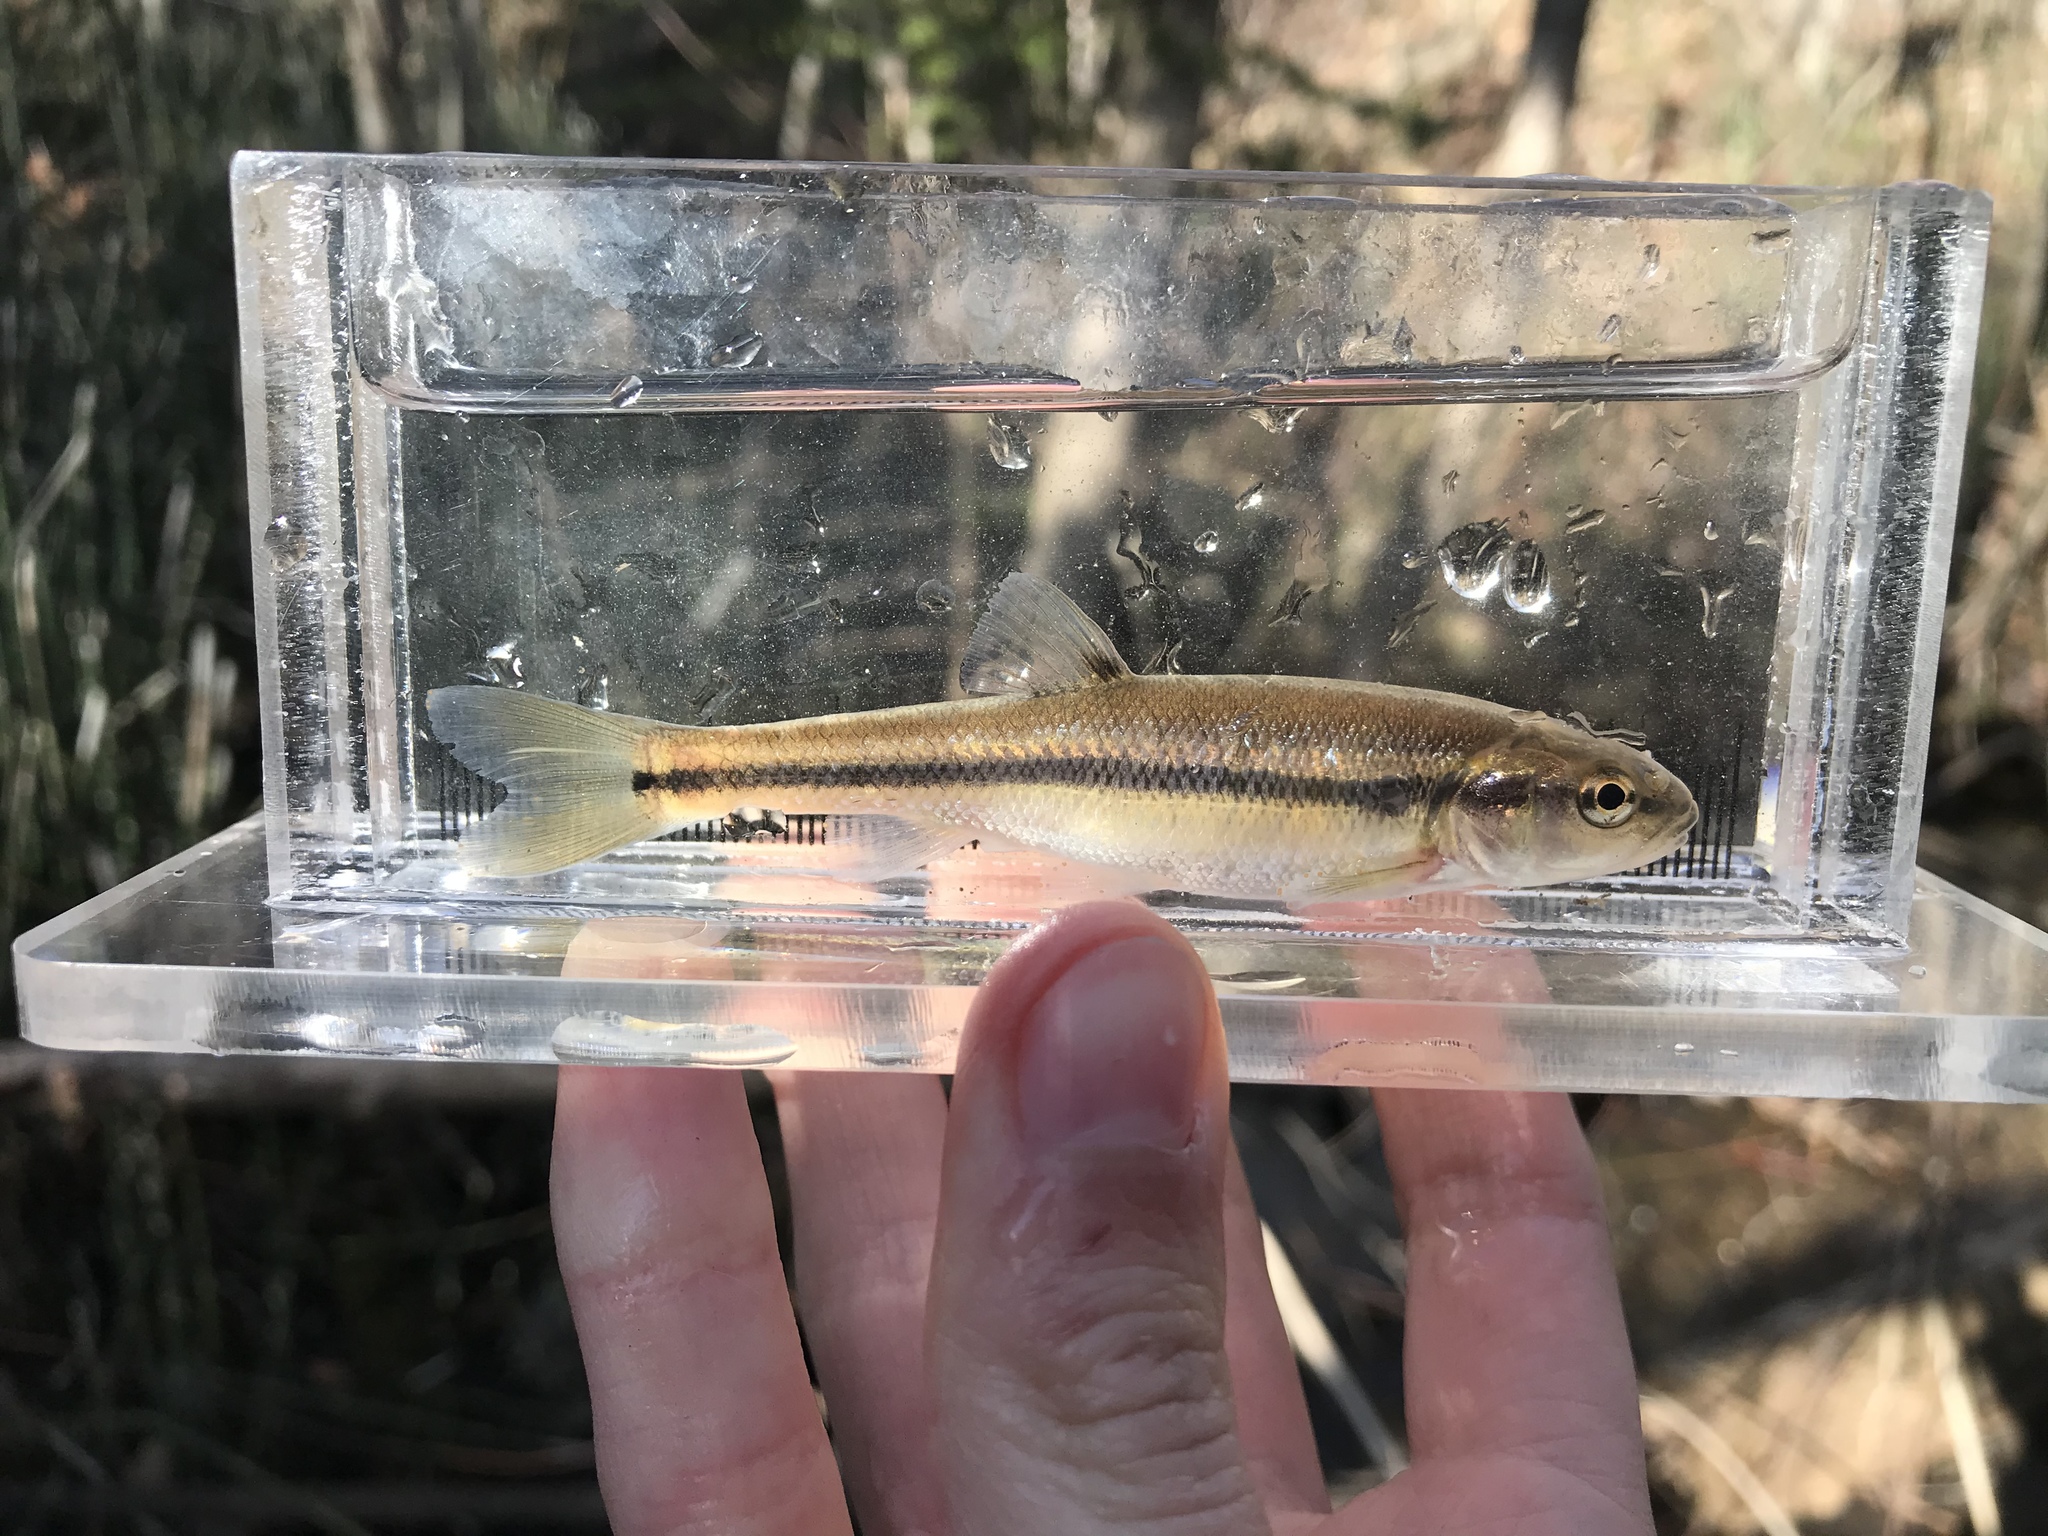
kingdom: Animalia
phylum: Chordata
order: Cypriniformes
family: Cyprinidae
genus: Semotilus
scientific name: Semotilus atromaculatus
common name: Creek chub
